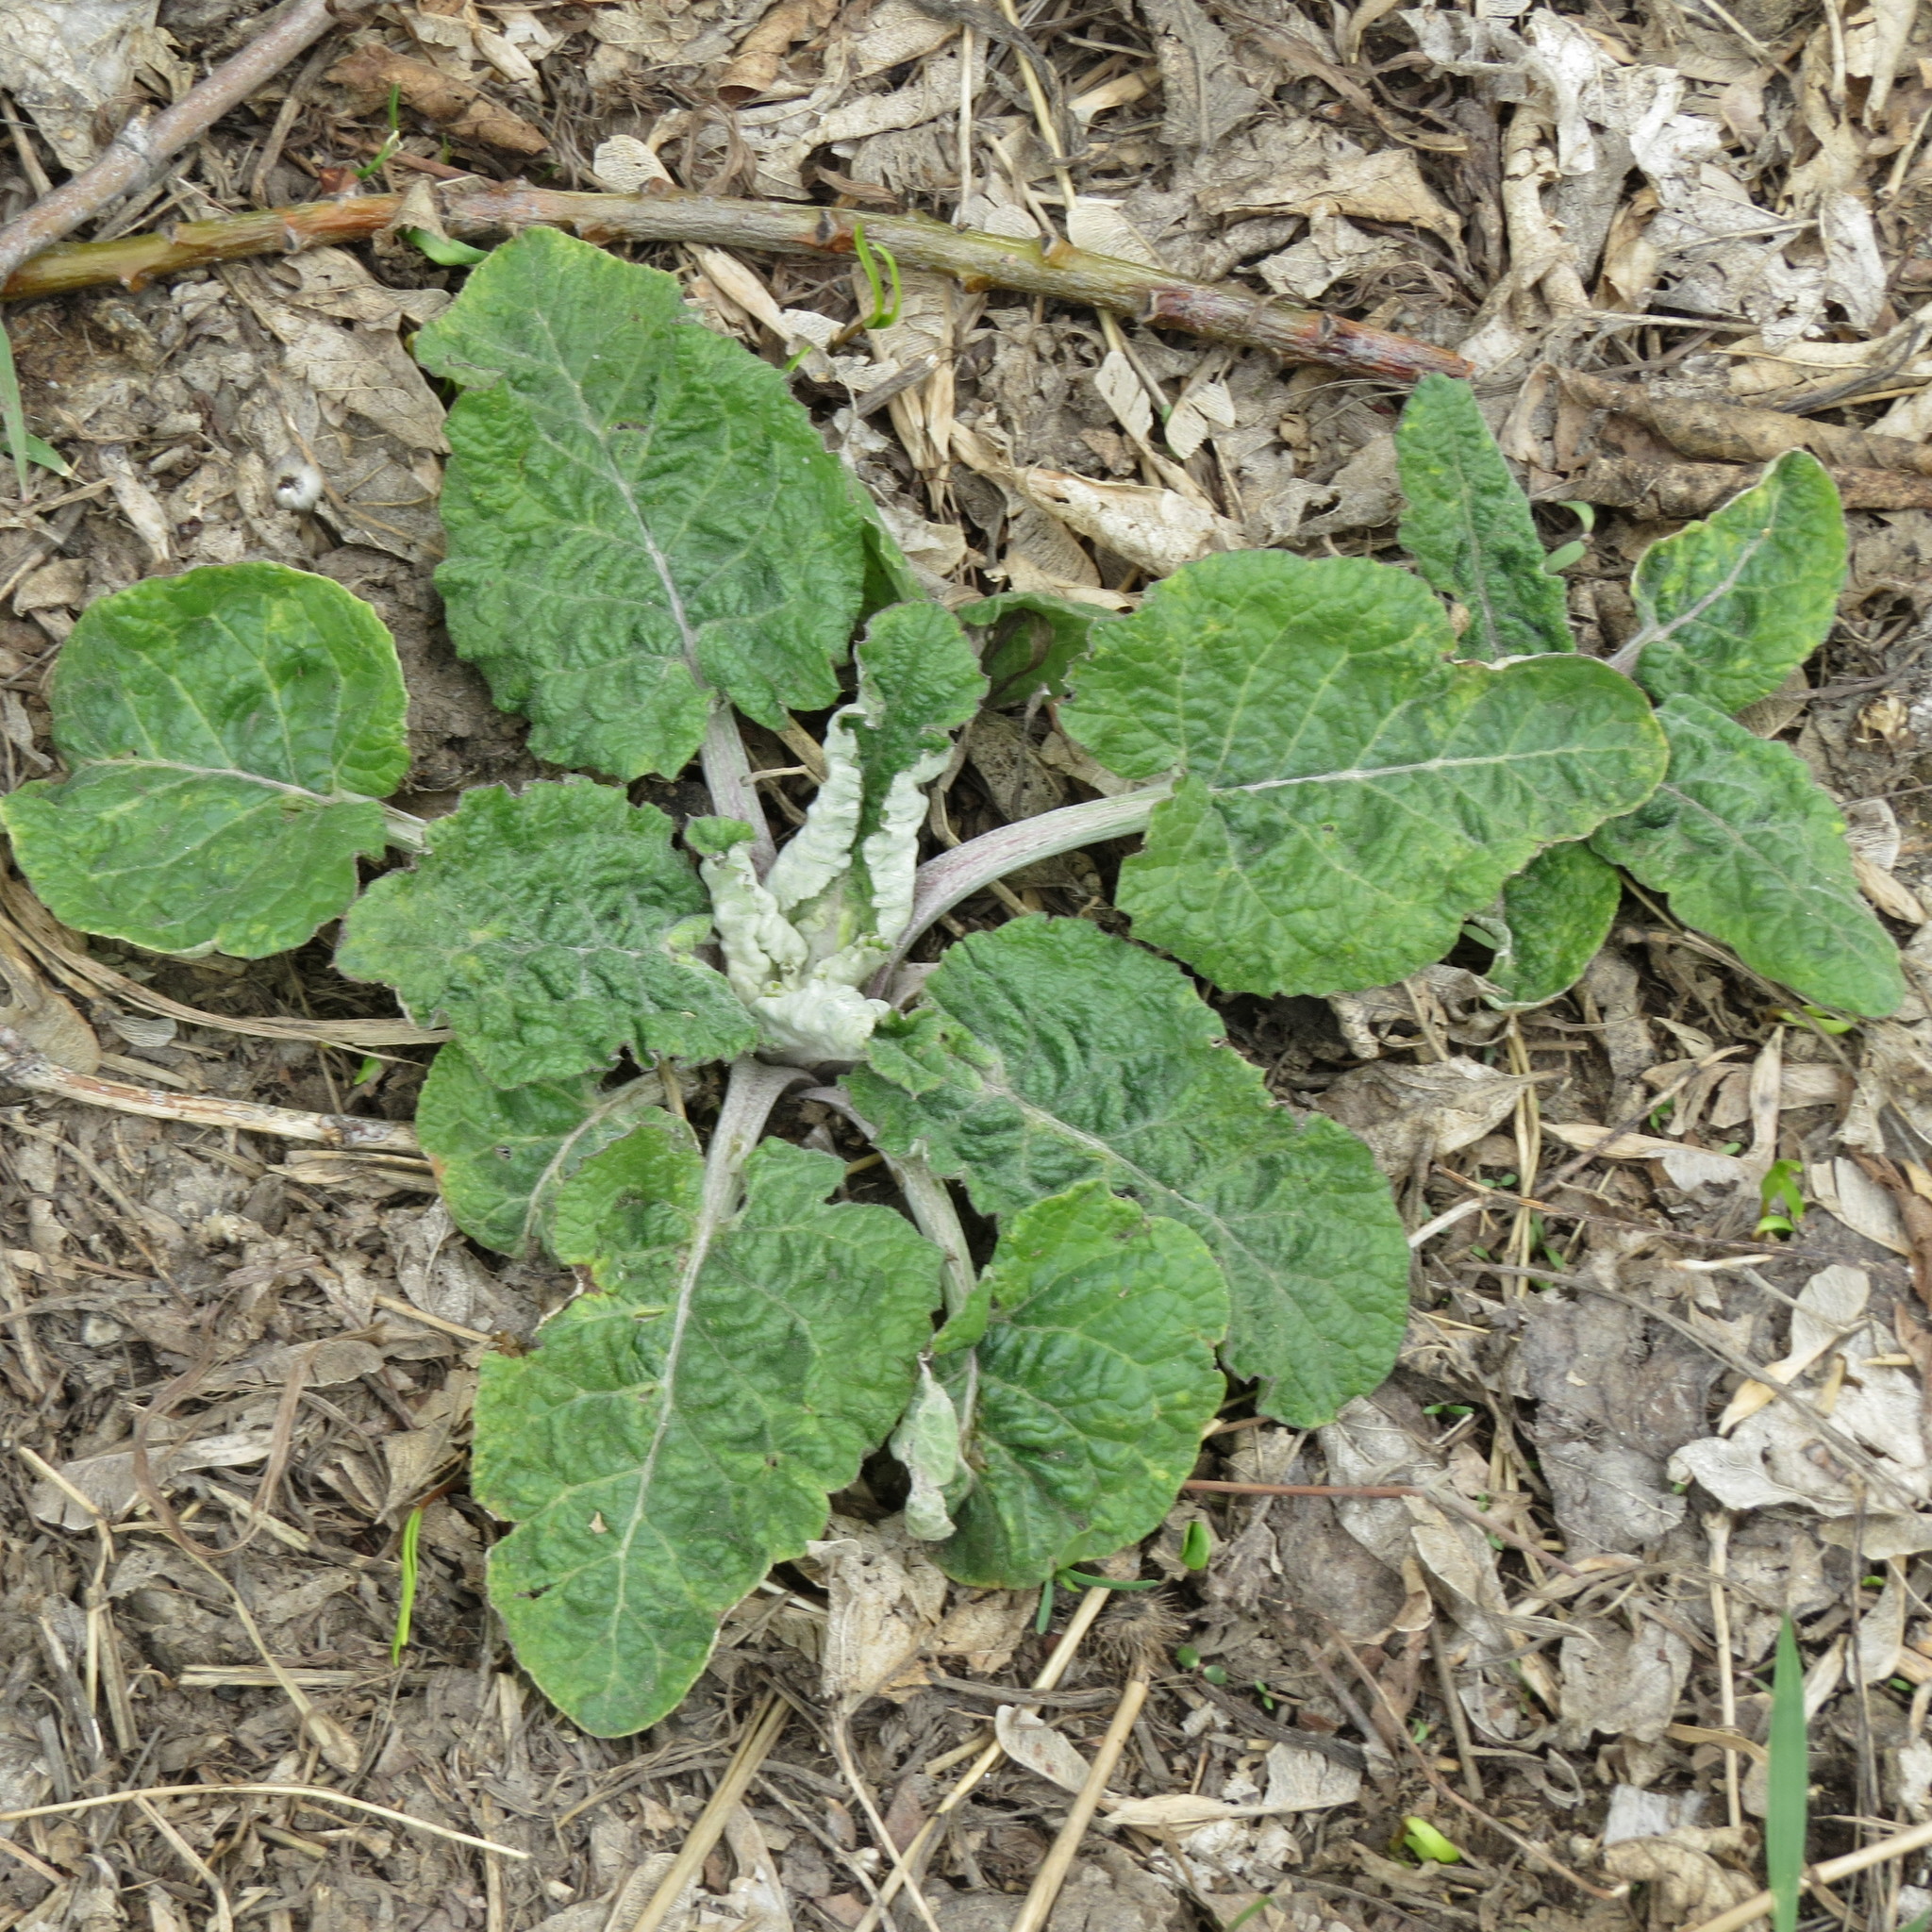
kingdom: Plantae
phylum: Tracheophyta
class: Magnoliopsida
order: Asterales
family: Asteraceae
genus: Arctium
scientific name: Arctium tomentosum
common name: Woolly burdock
